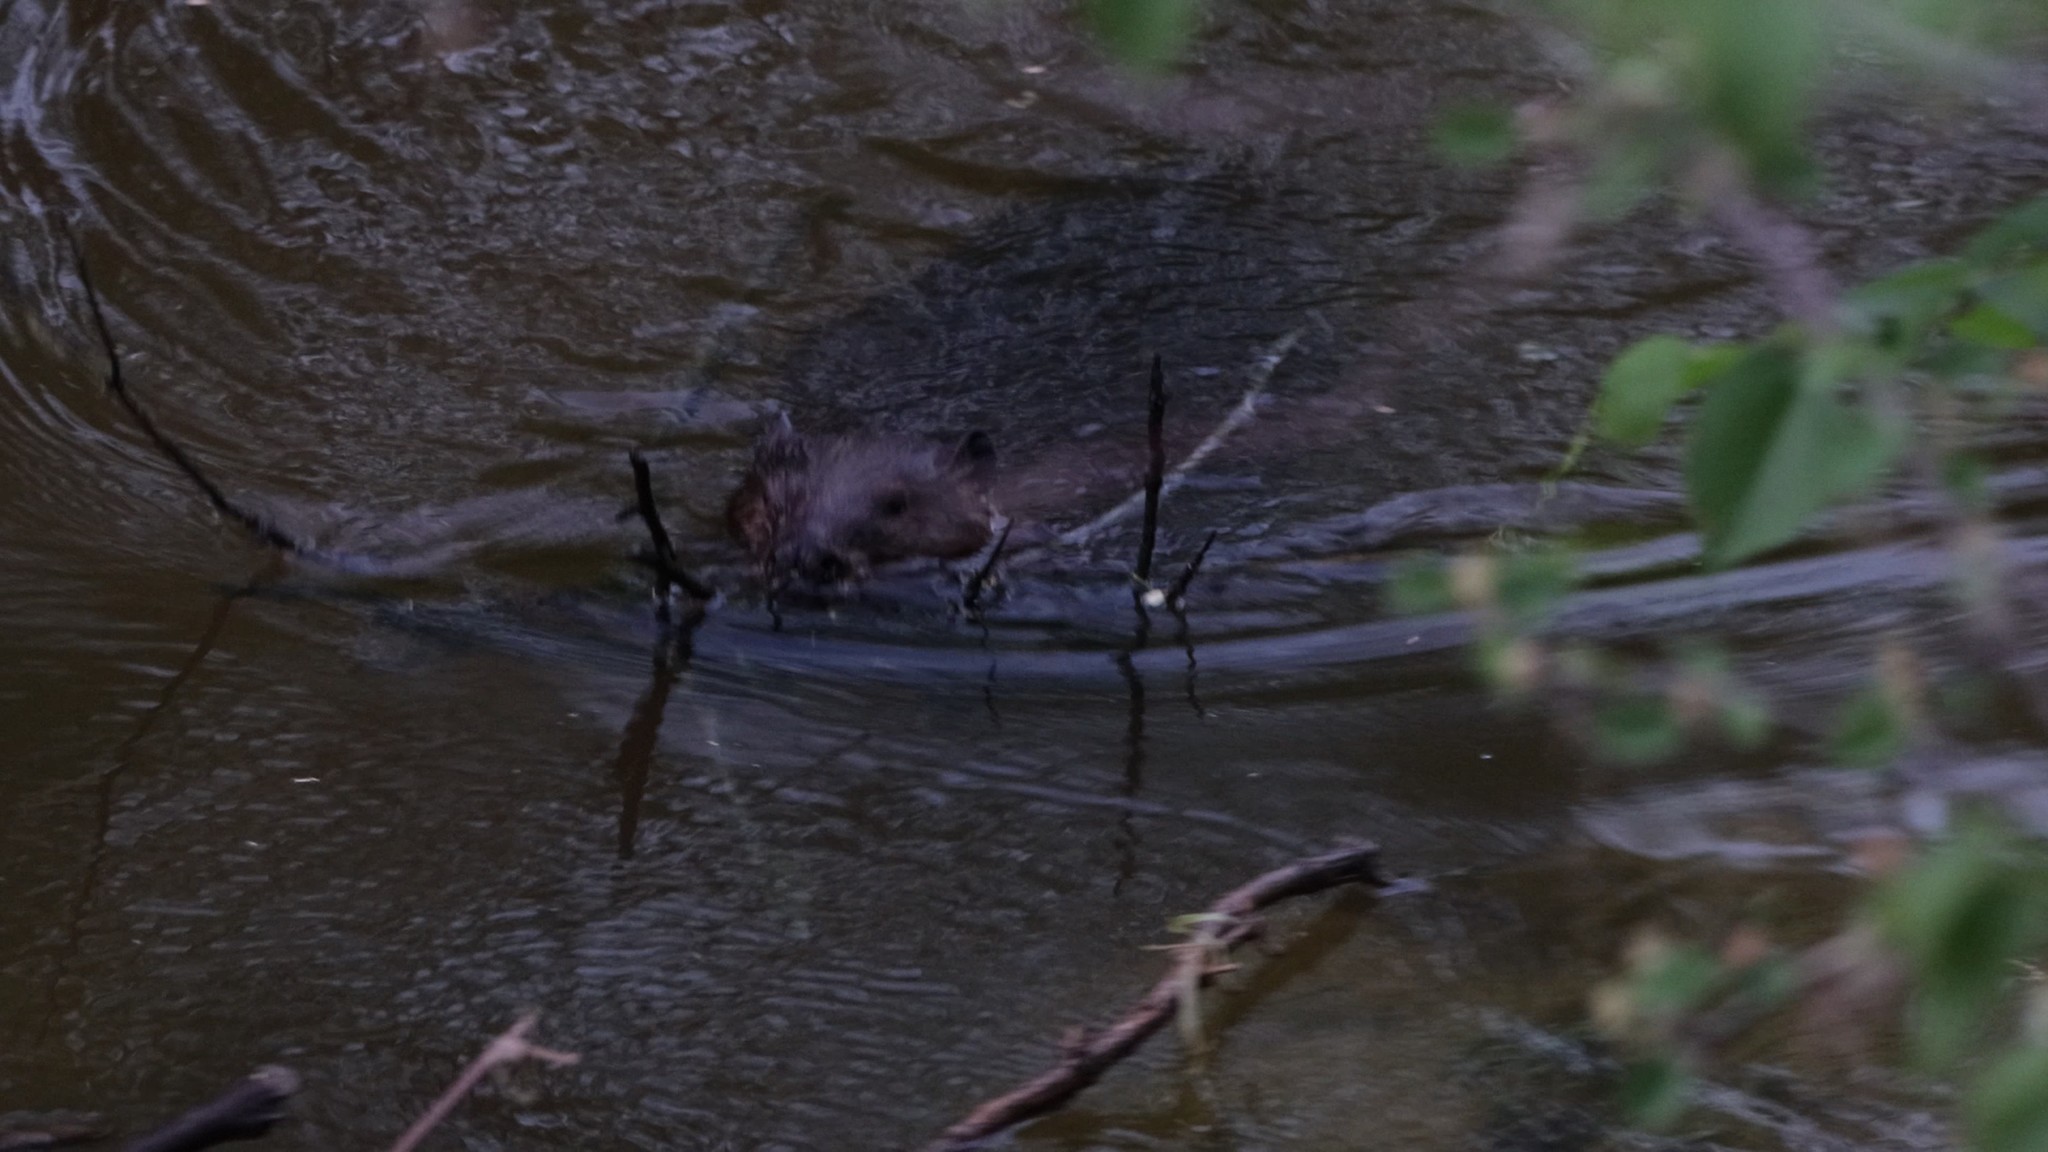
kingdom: Animalia
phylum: Chordata
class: Mammalia
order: Rodentia
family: Castoridae
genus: Castor
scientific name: Castor canadensis
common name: American beaver
